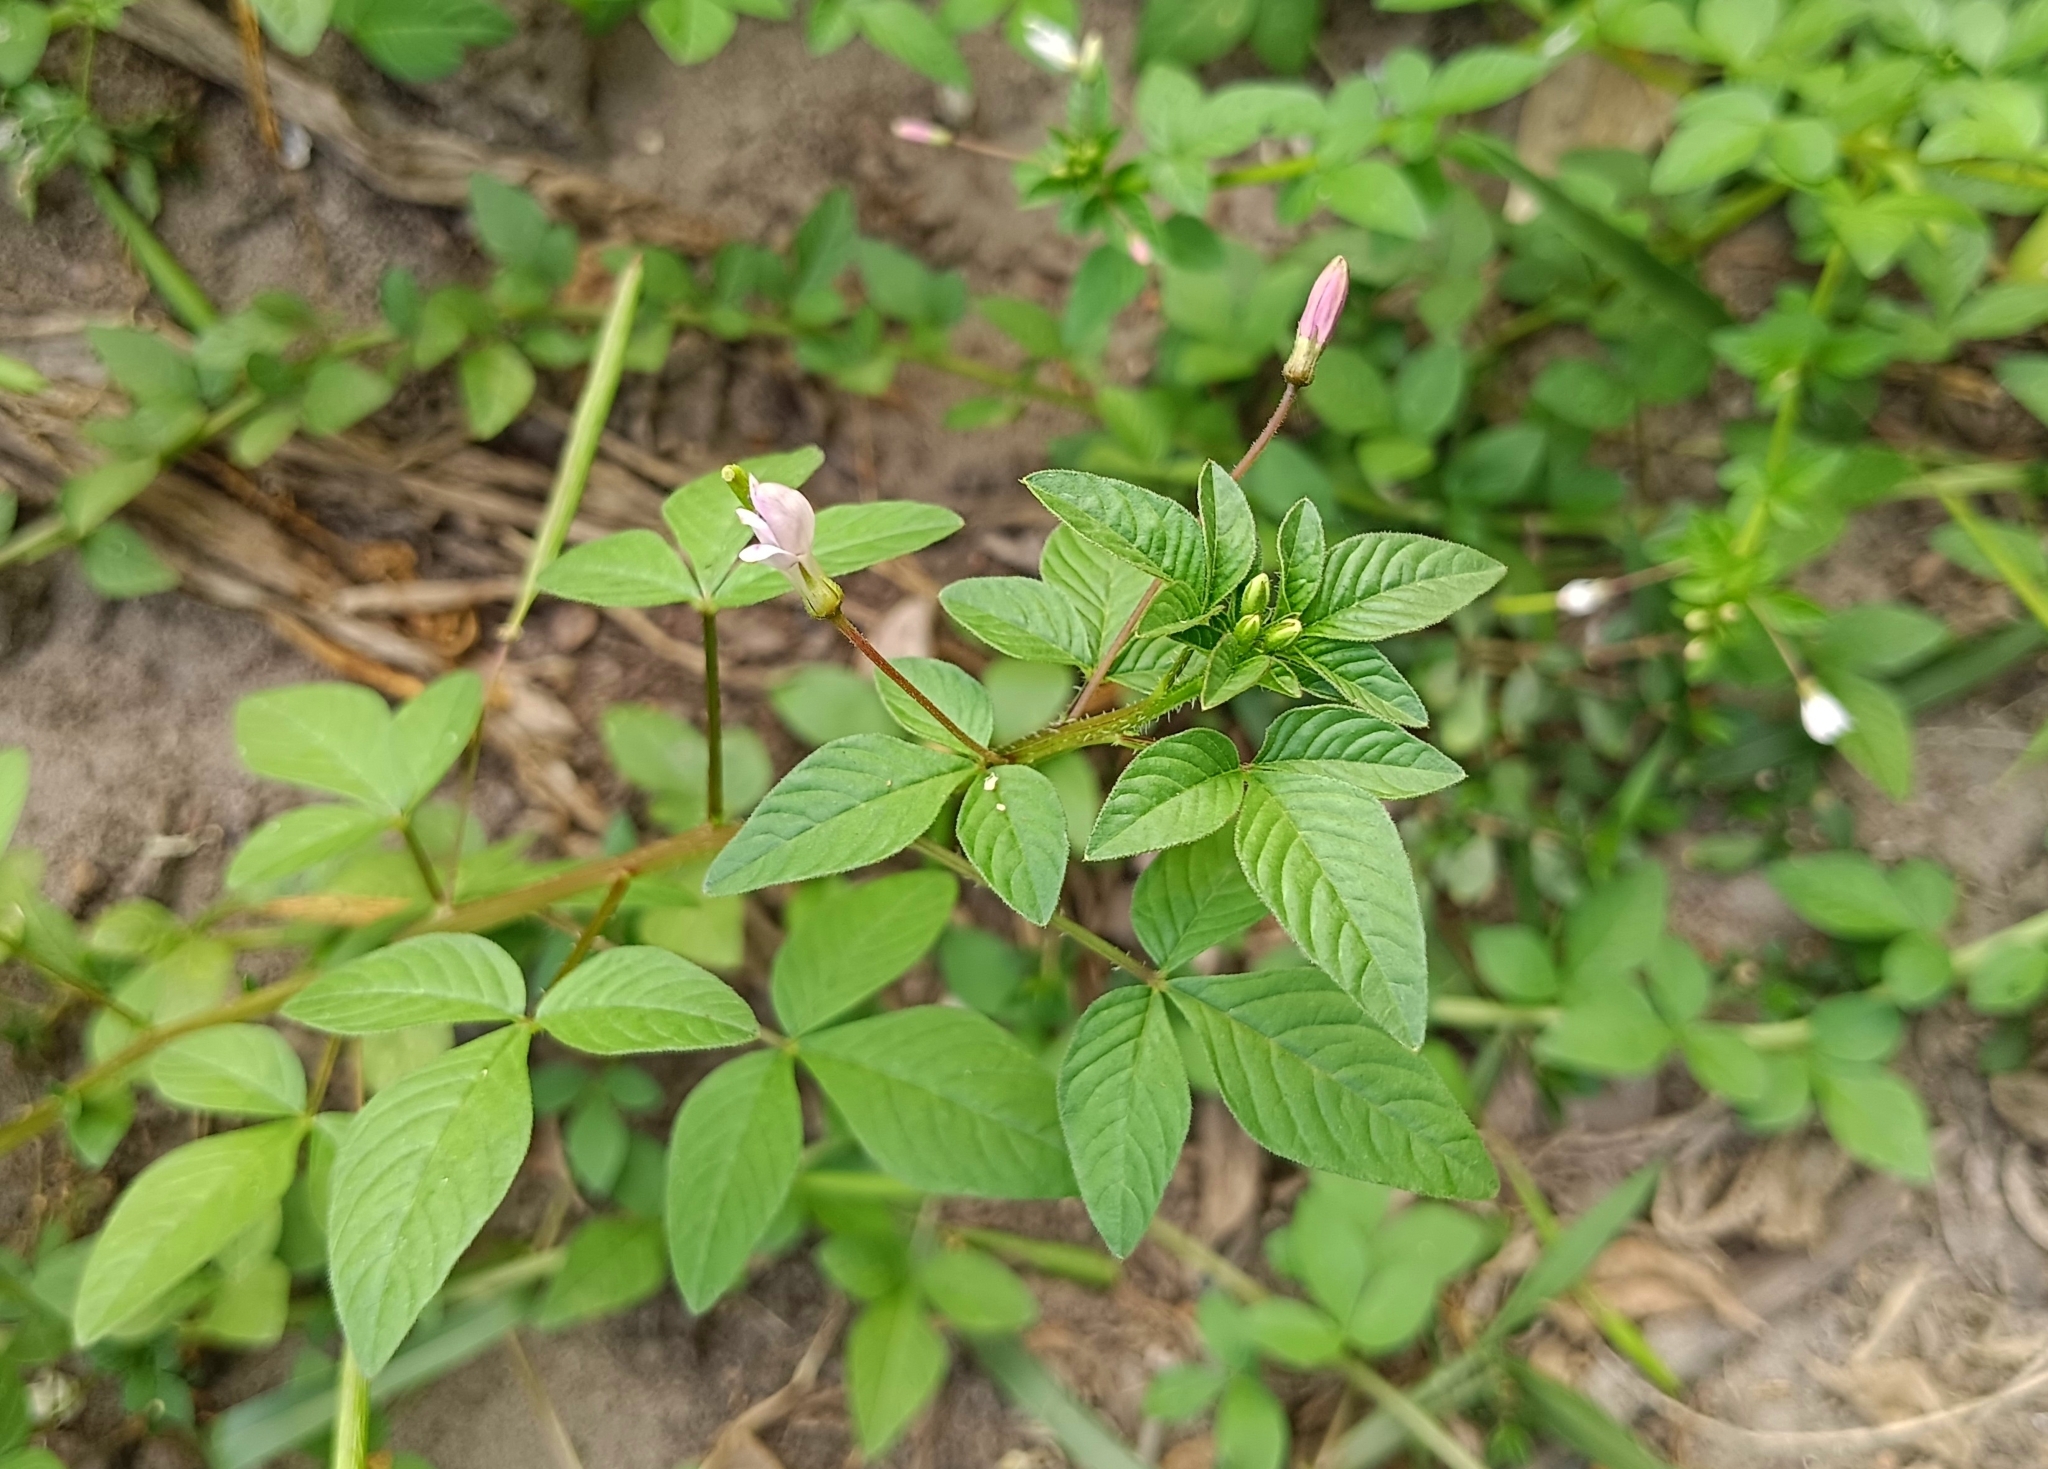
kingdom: Plantae
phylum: Tracheophyta
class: Magnoliopsida
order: Brassicales
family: Cleomaceae
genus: Sieruela
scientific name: Sieruela rutidosperma
